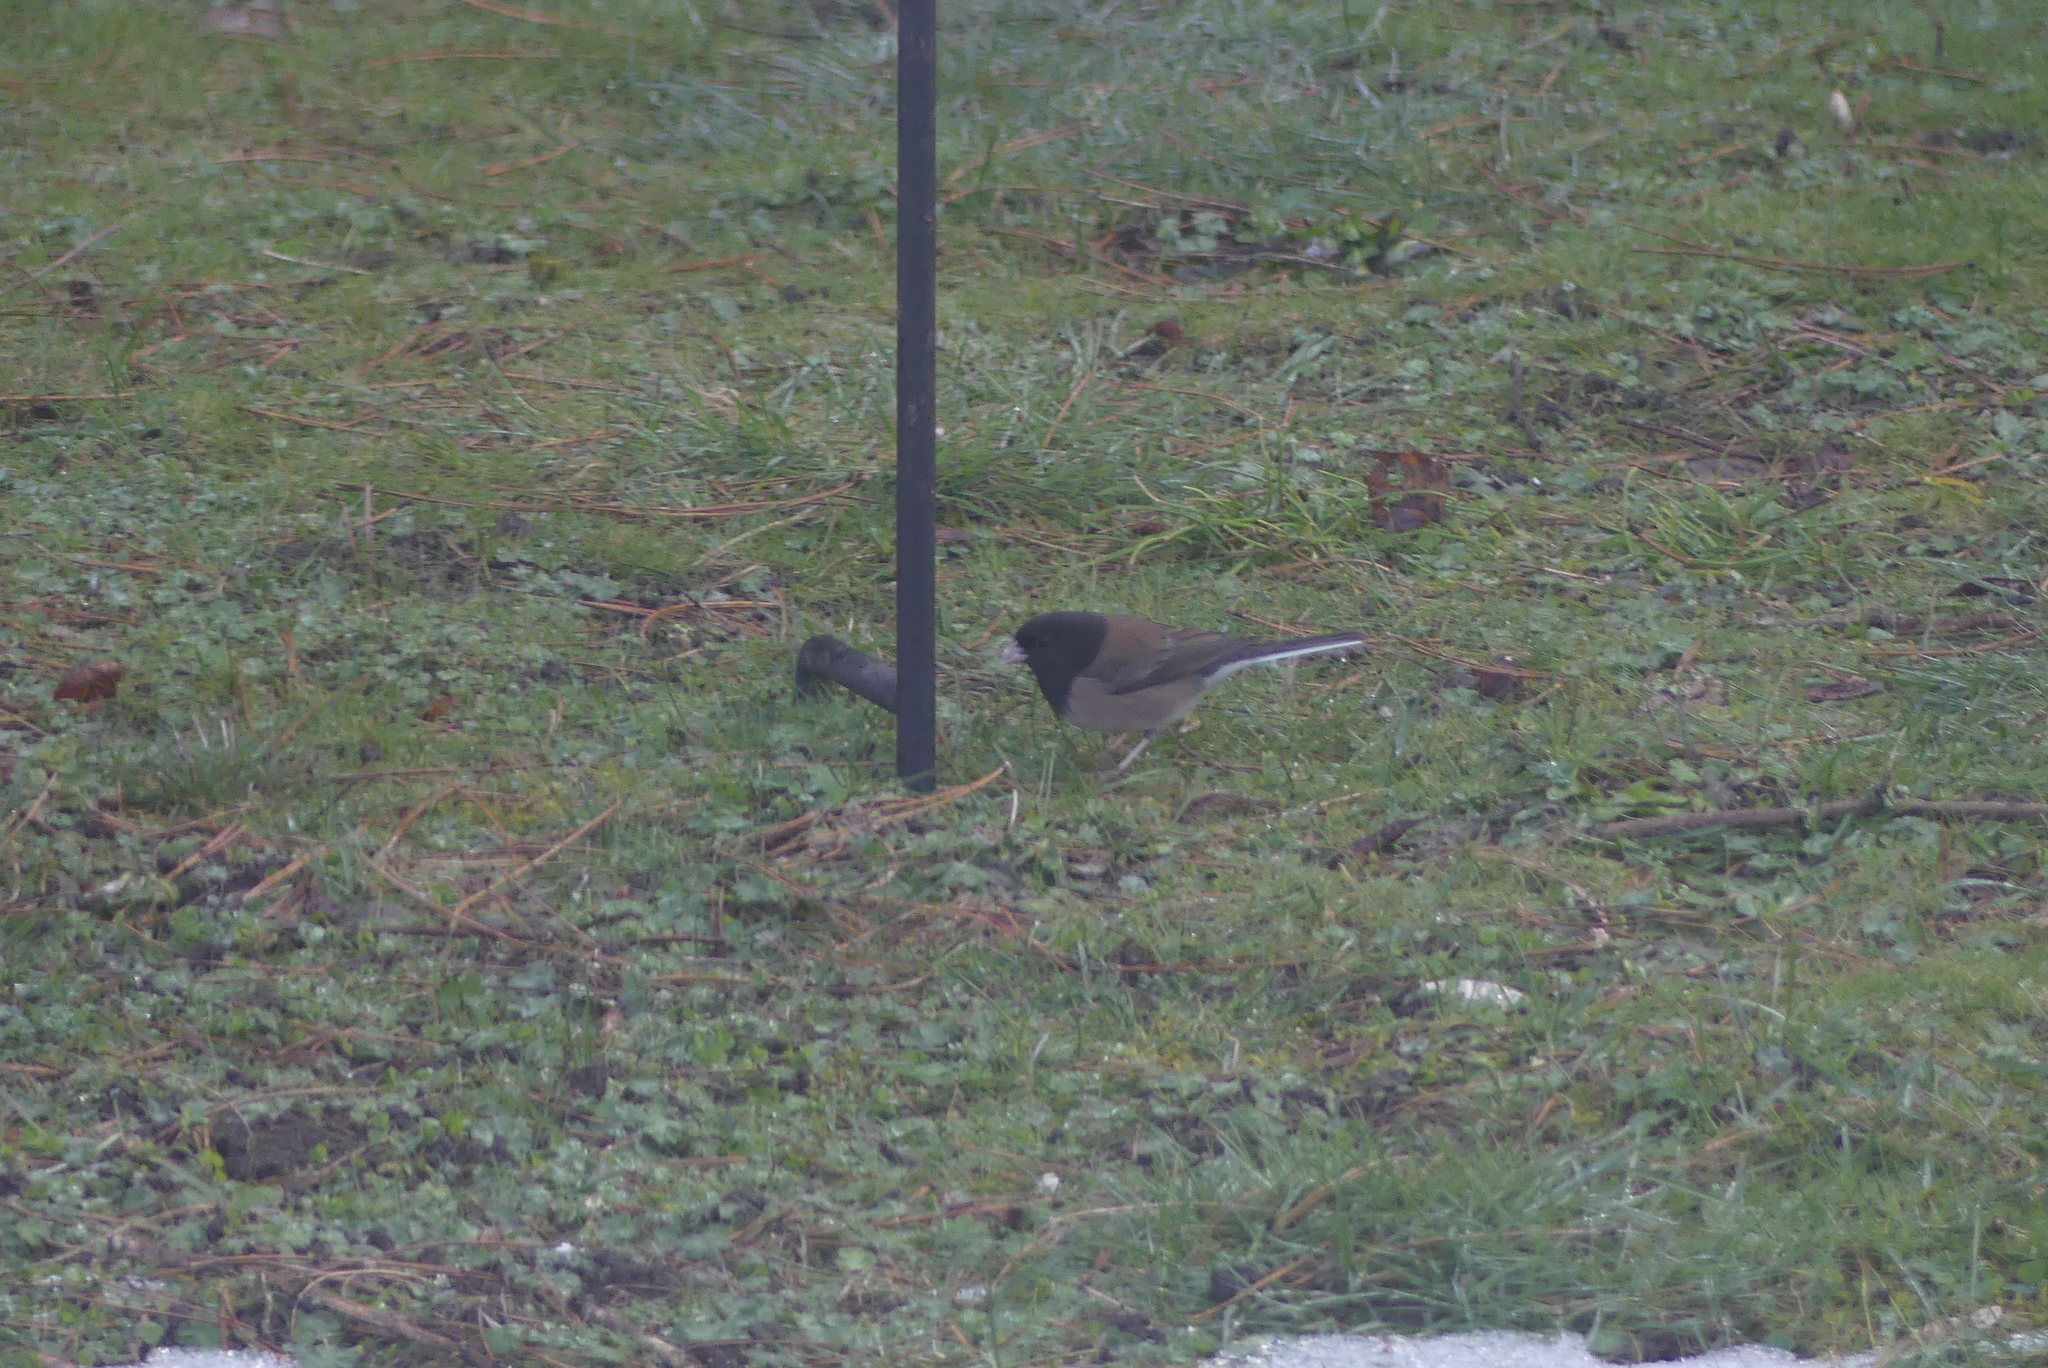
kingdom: Animalia
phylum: Chordata
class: Aves
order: Passeriformes
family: Passerellidae
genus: Junco
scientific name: Junco hyemalis
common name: Dark-eyed junco
